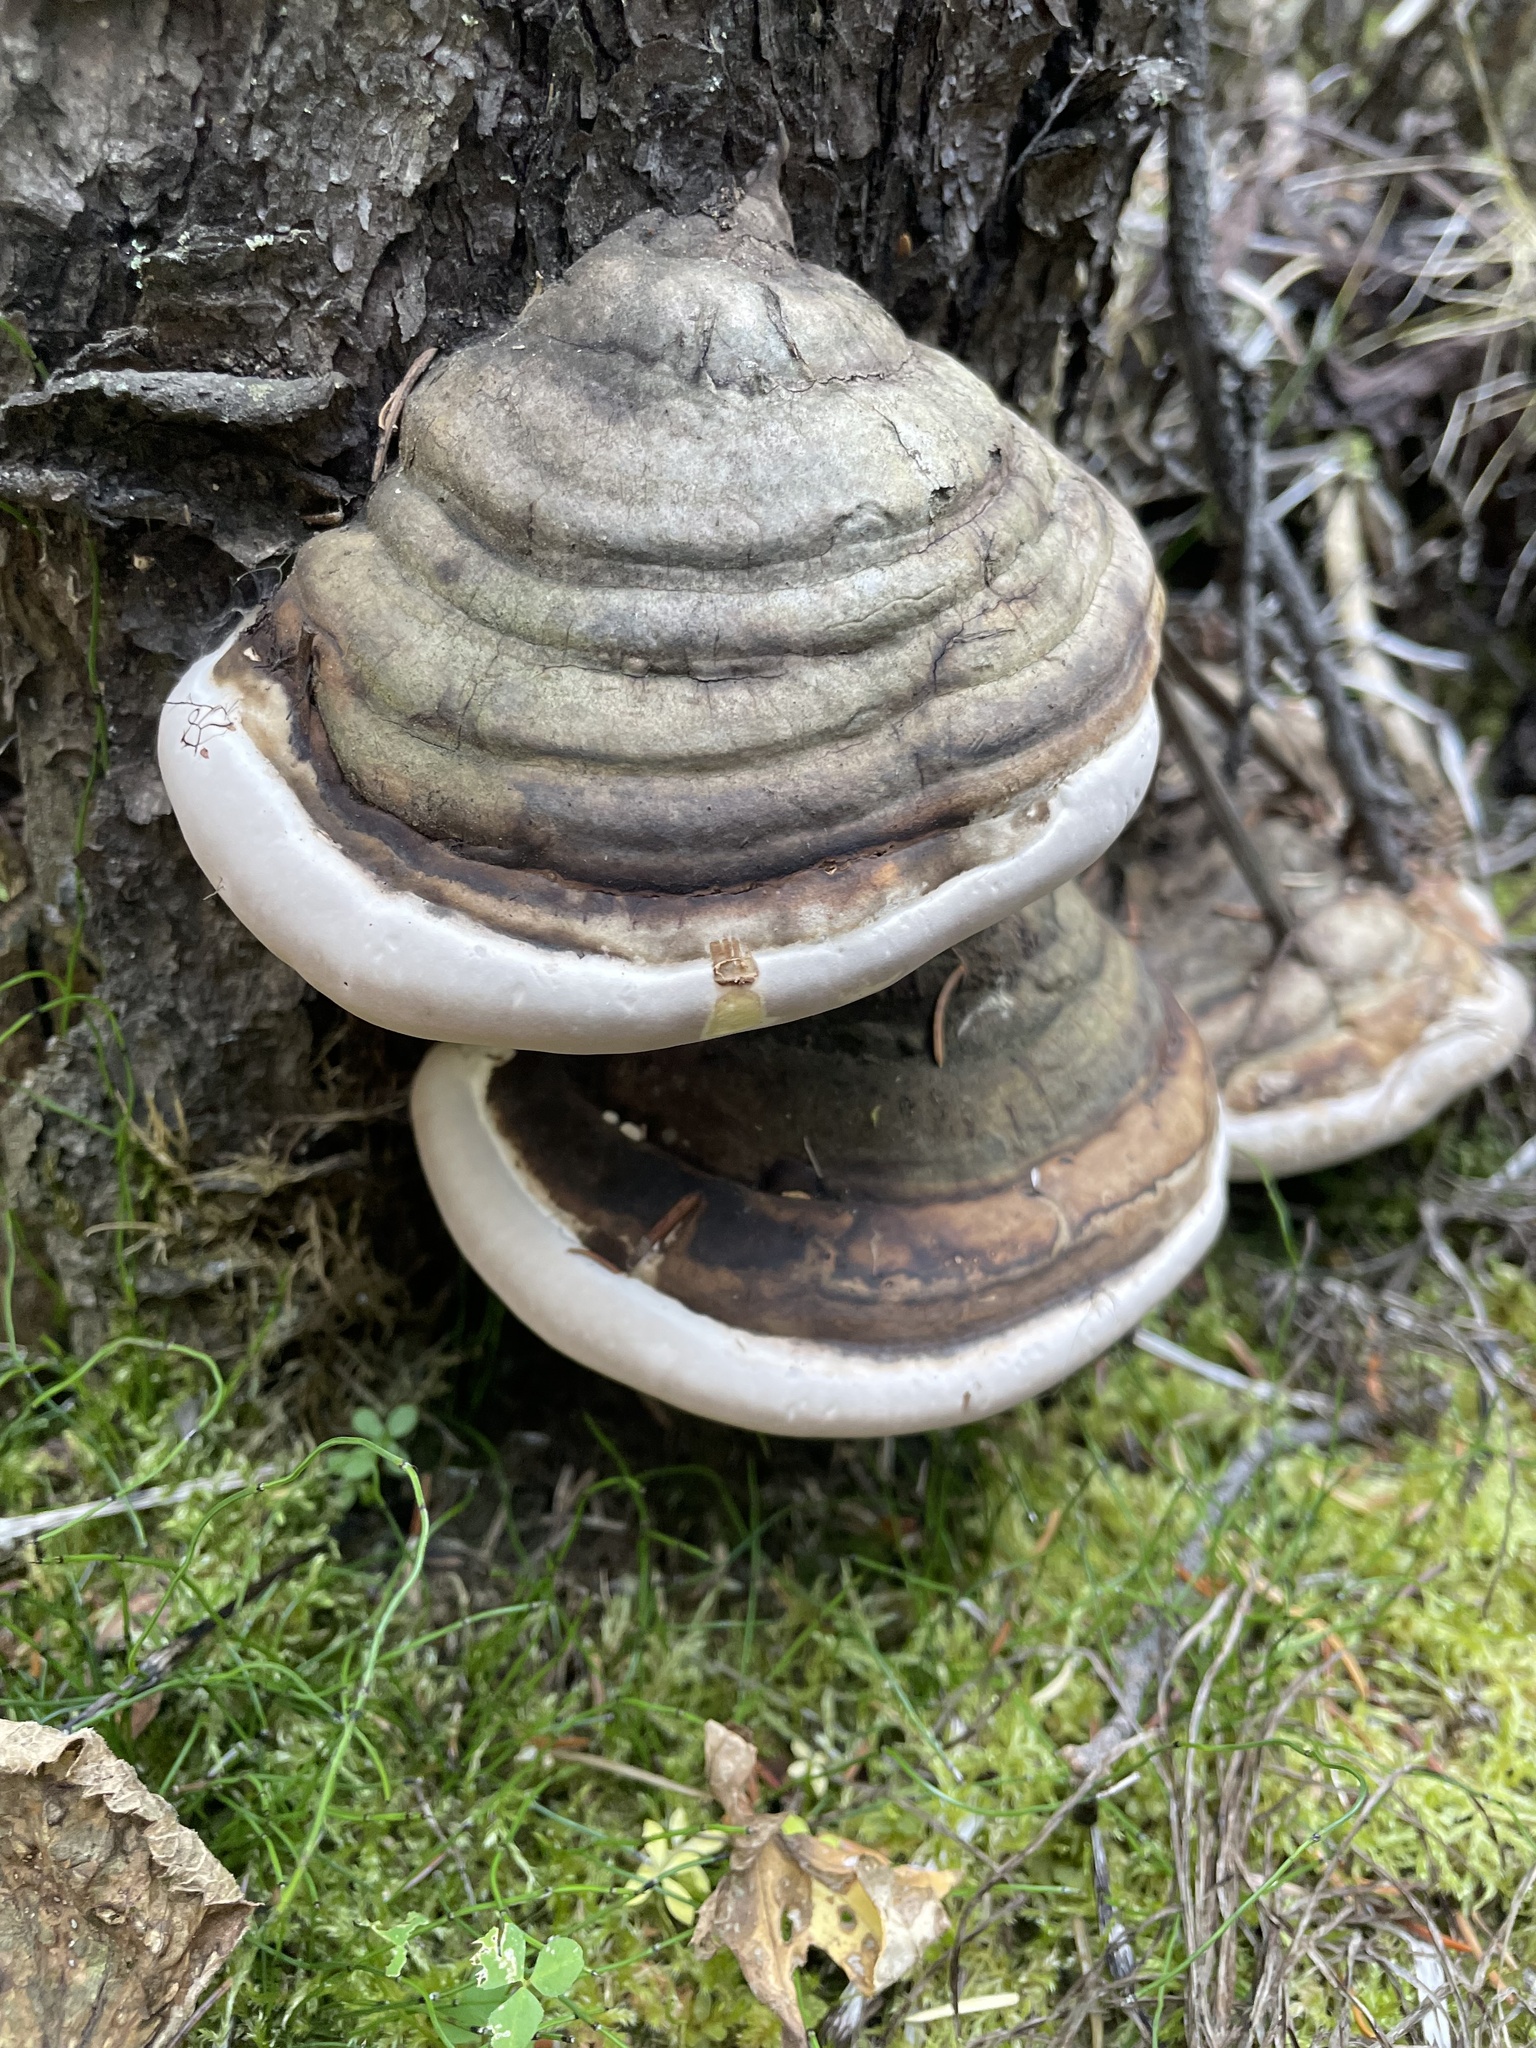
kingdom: Fungi
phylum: Basidiomycota
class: Agaricomycetes
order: Polyporales
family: Fomitopsidaceae
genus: Fomitopsis
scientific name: Fomitopsis ochracea
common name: American brown fomitopsis
